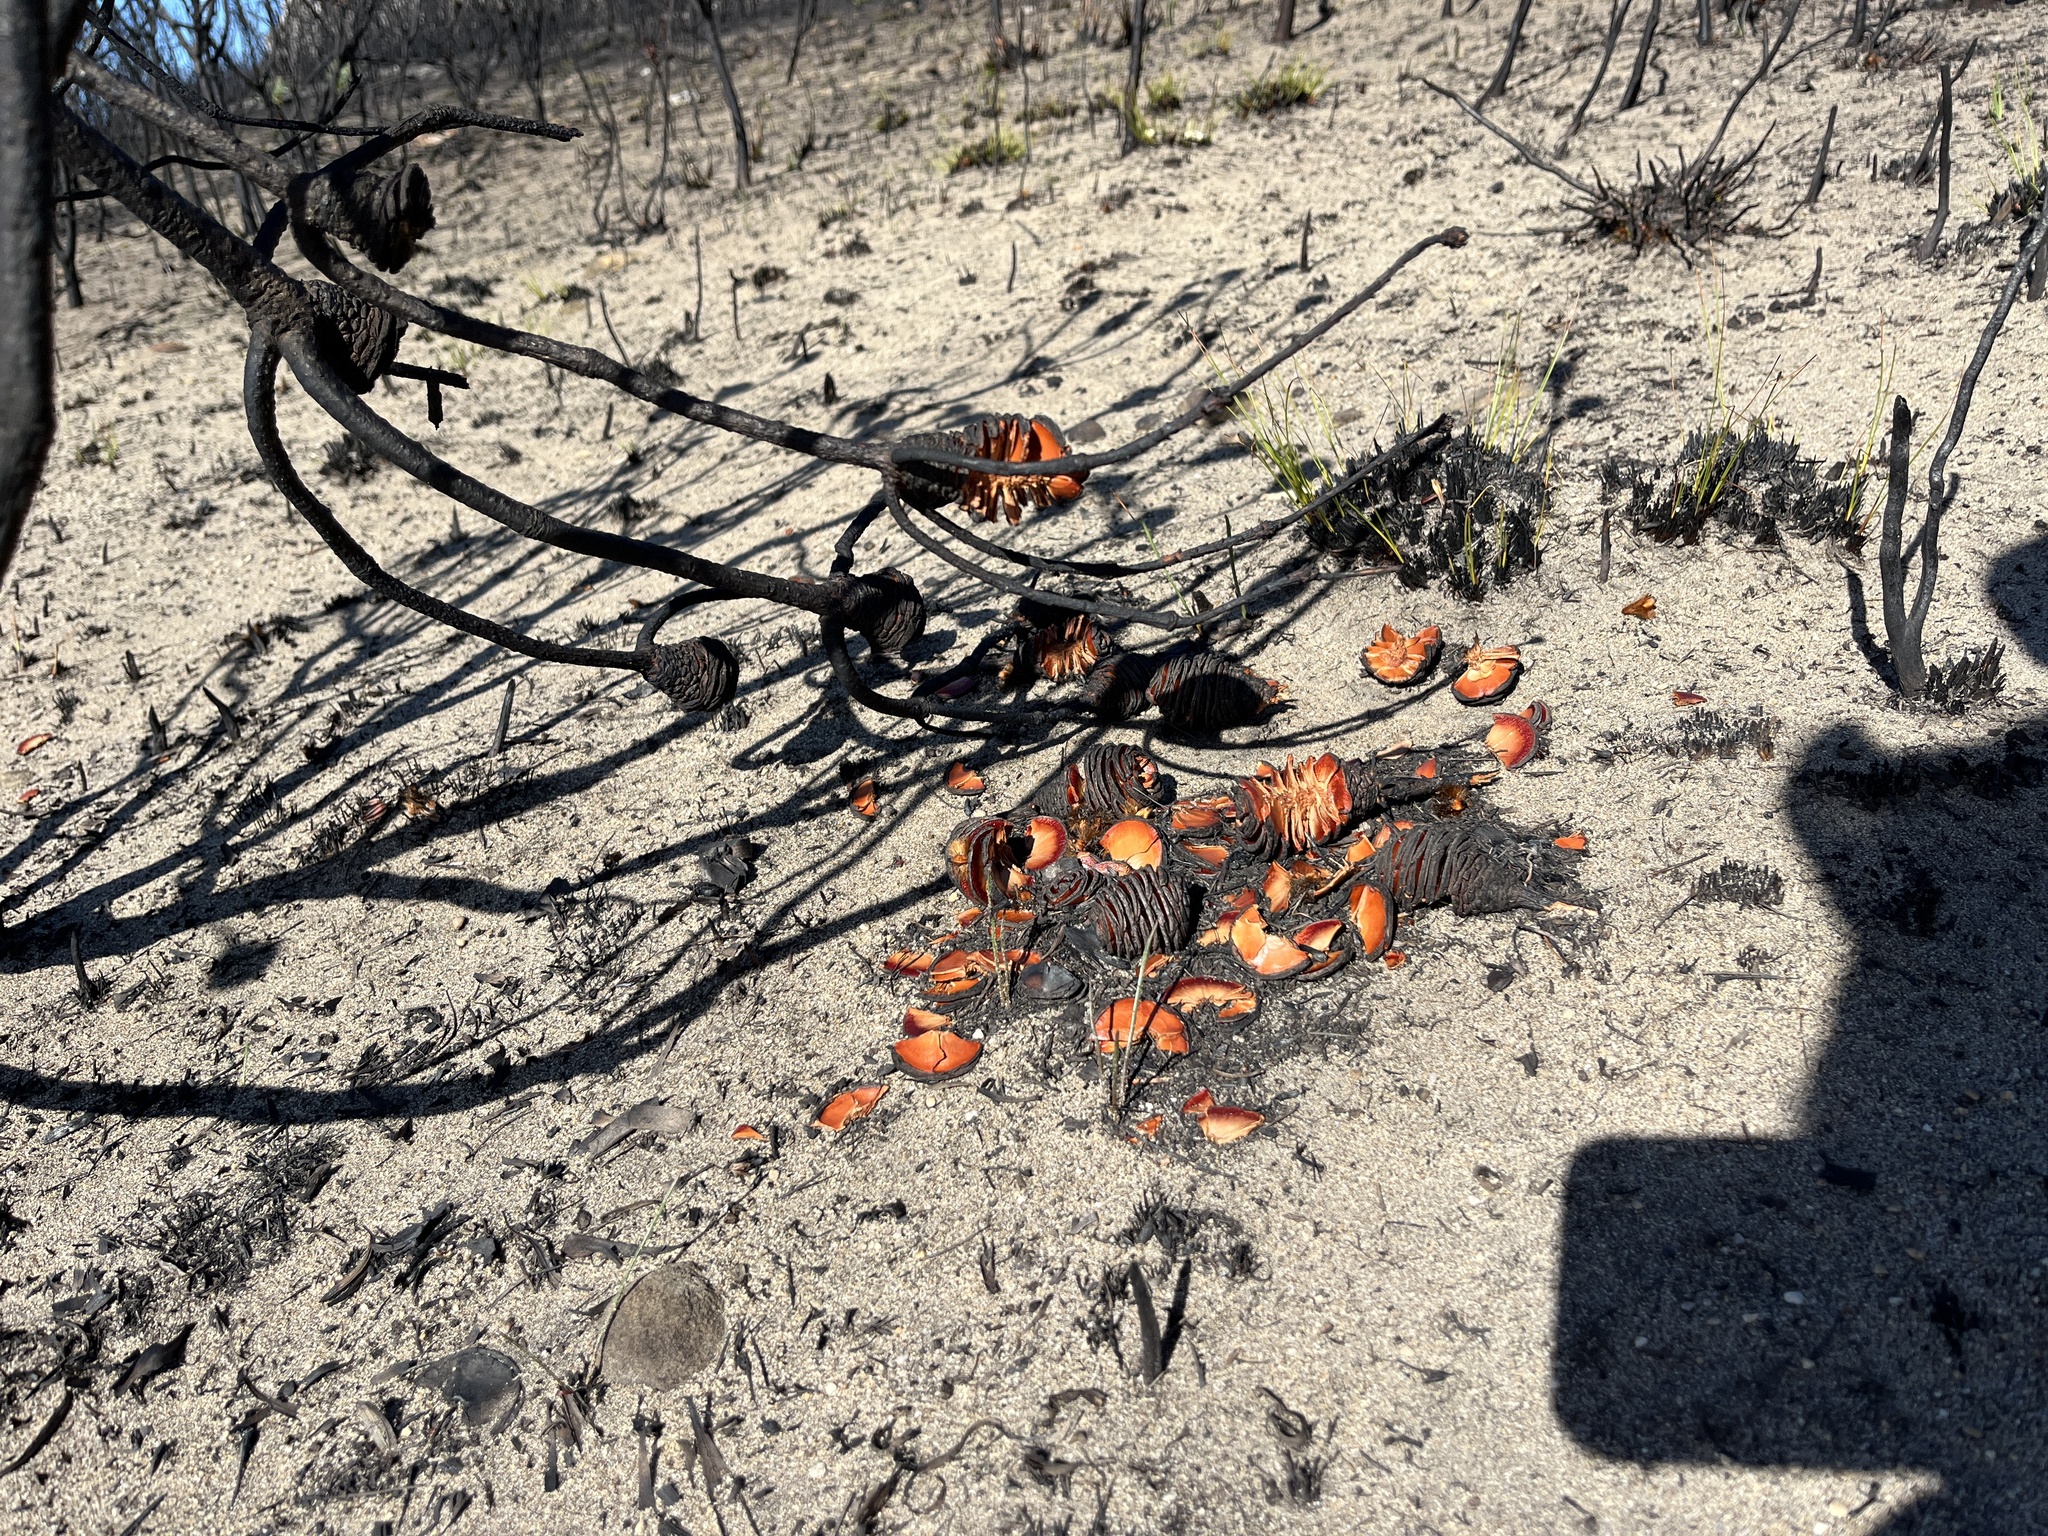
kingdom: Plantae
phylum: Tracheophyta
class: Magnoliopsida
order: Proteales
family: Proteaceae
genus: Leucadendron
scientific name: Leucadendron platyspermum
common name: Plate-seed conebush
